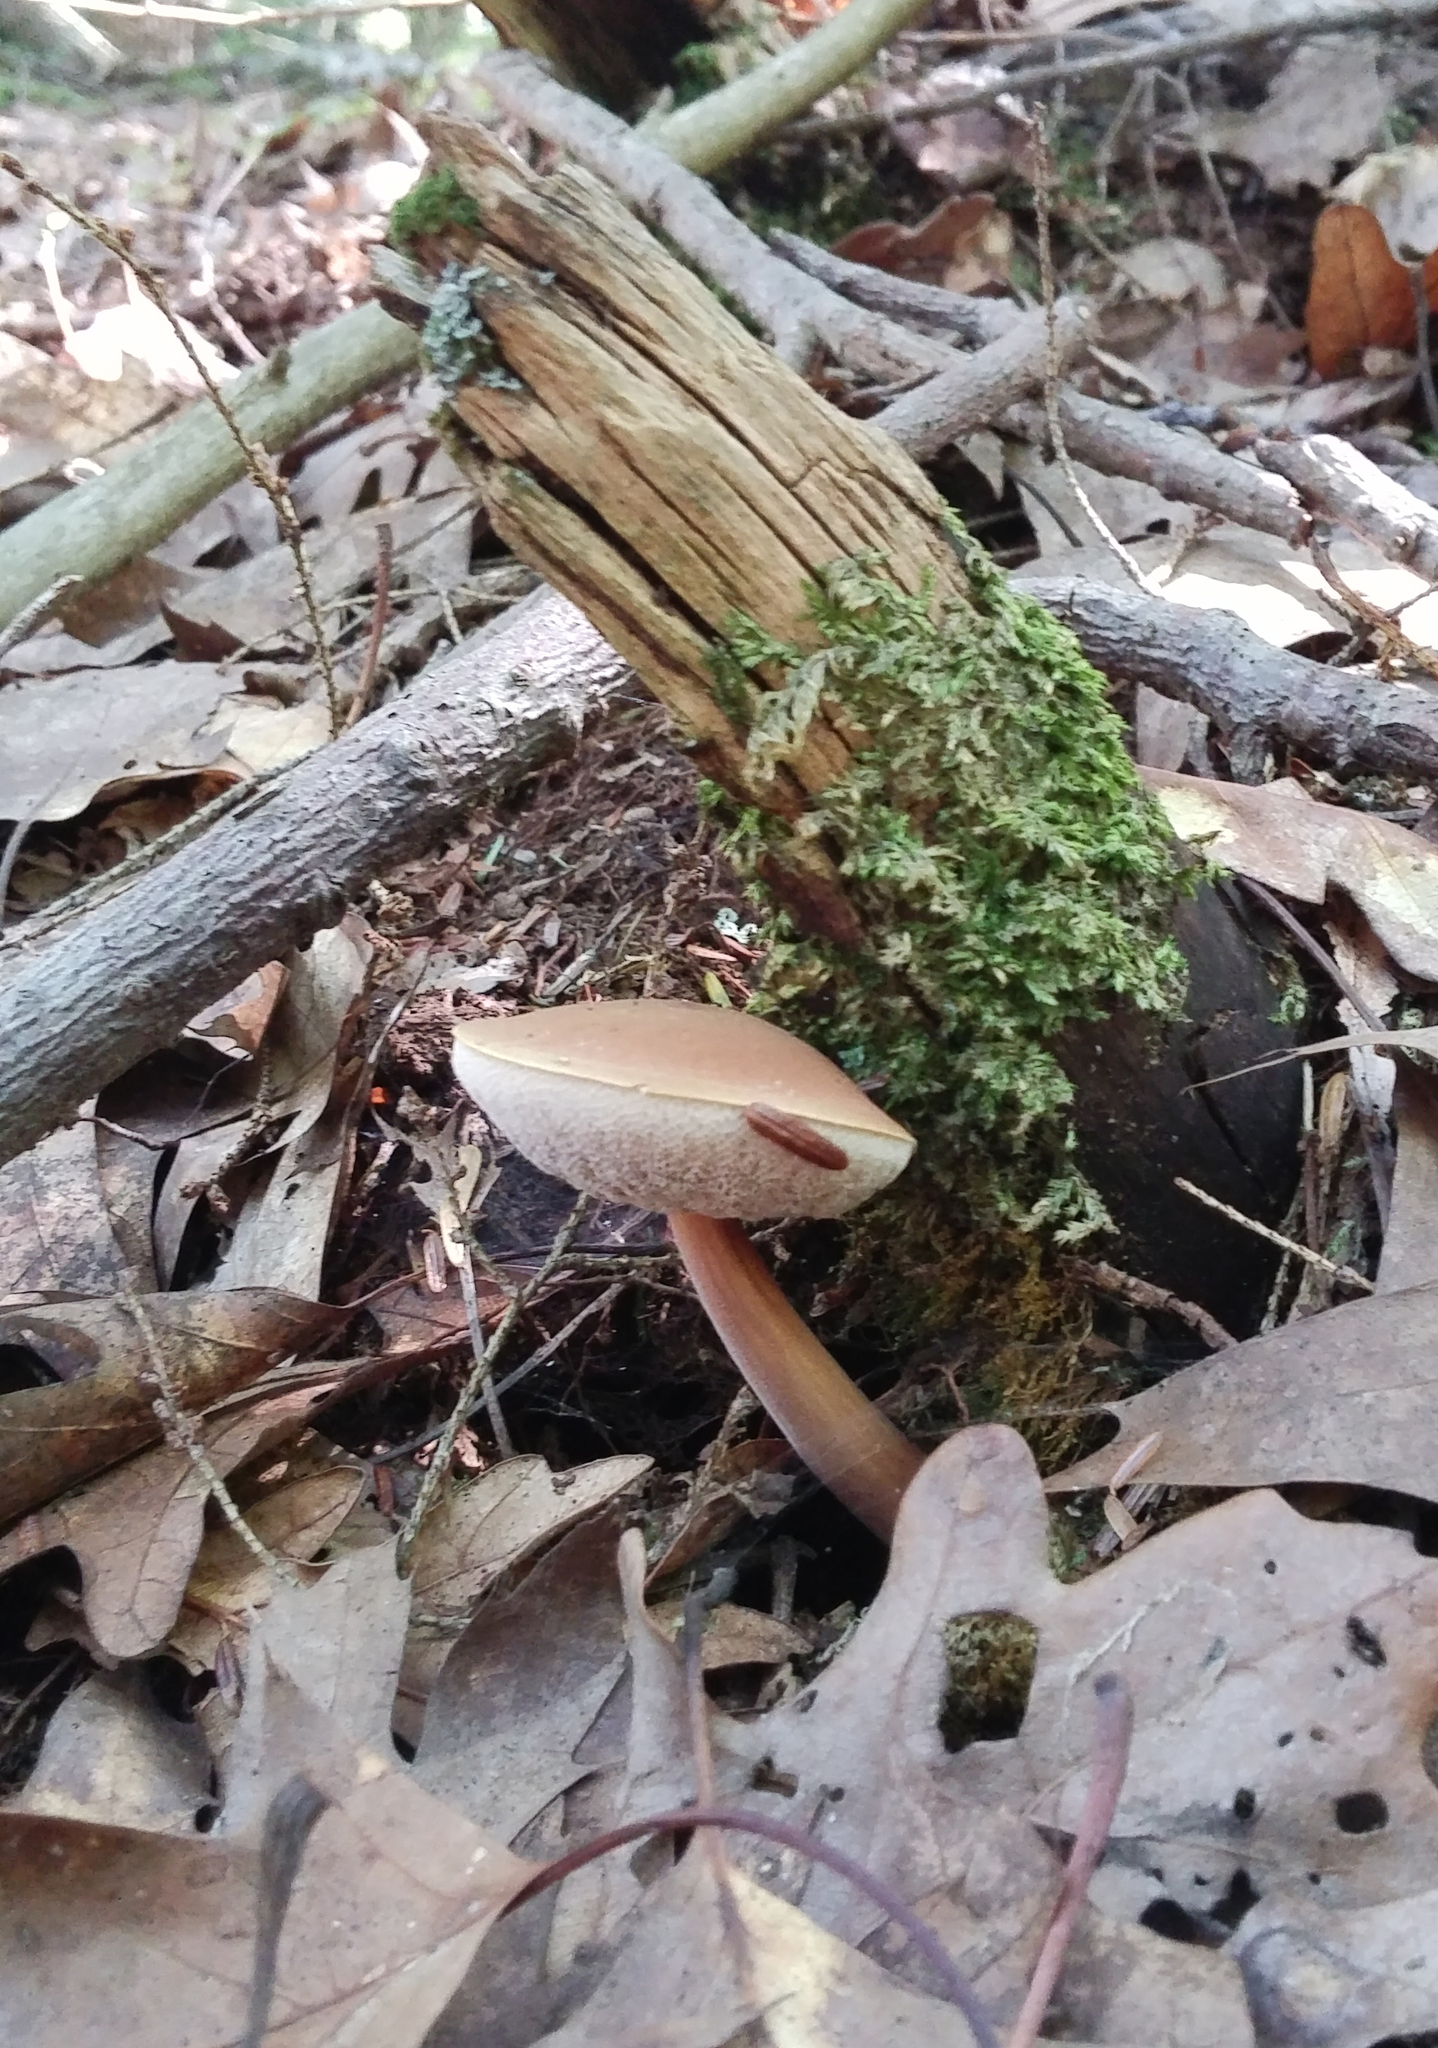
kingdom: Fungi
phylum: Basidiomycota
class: Agaricomycetes
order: Boletales
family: Boletaceae
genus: Austroboletus
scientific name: Austroboletus gracilis
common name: Graceful bolete
